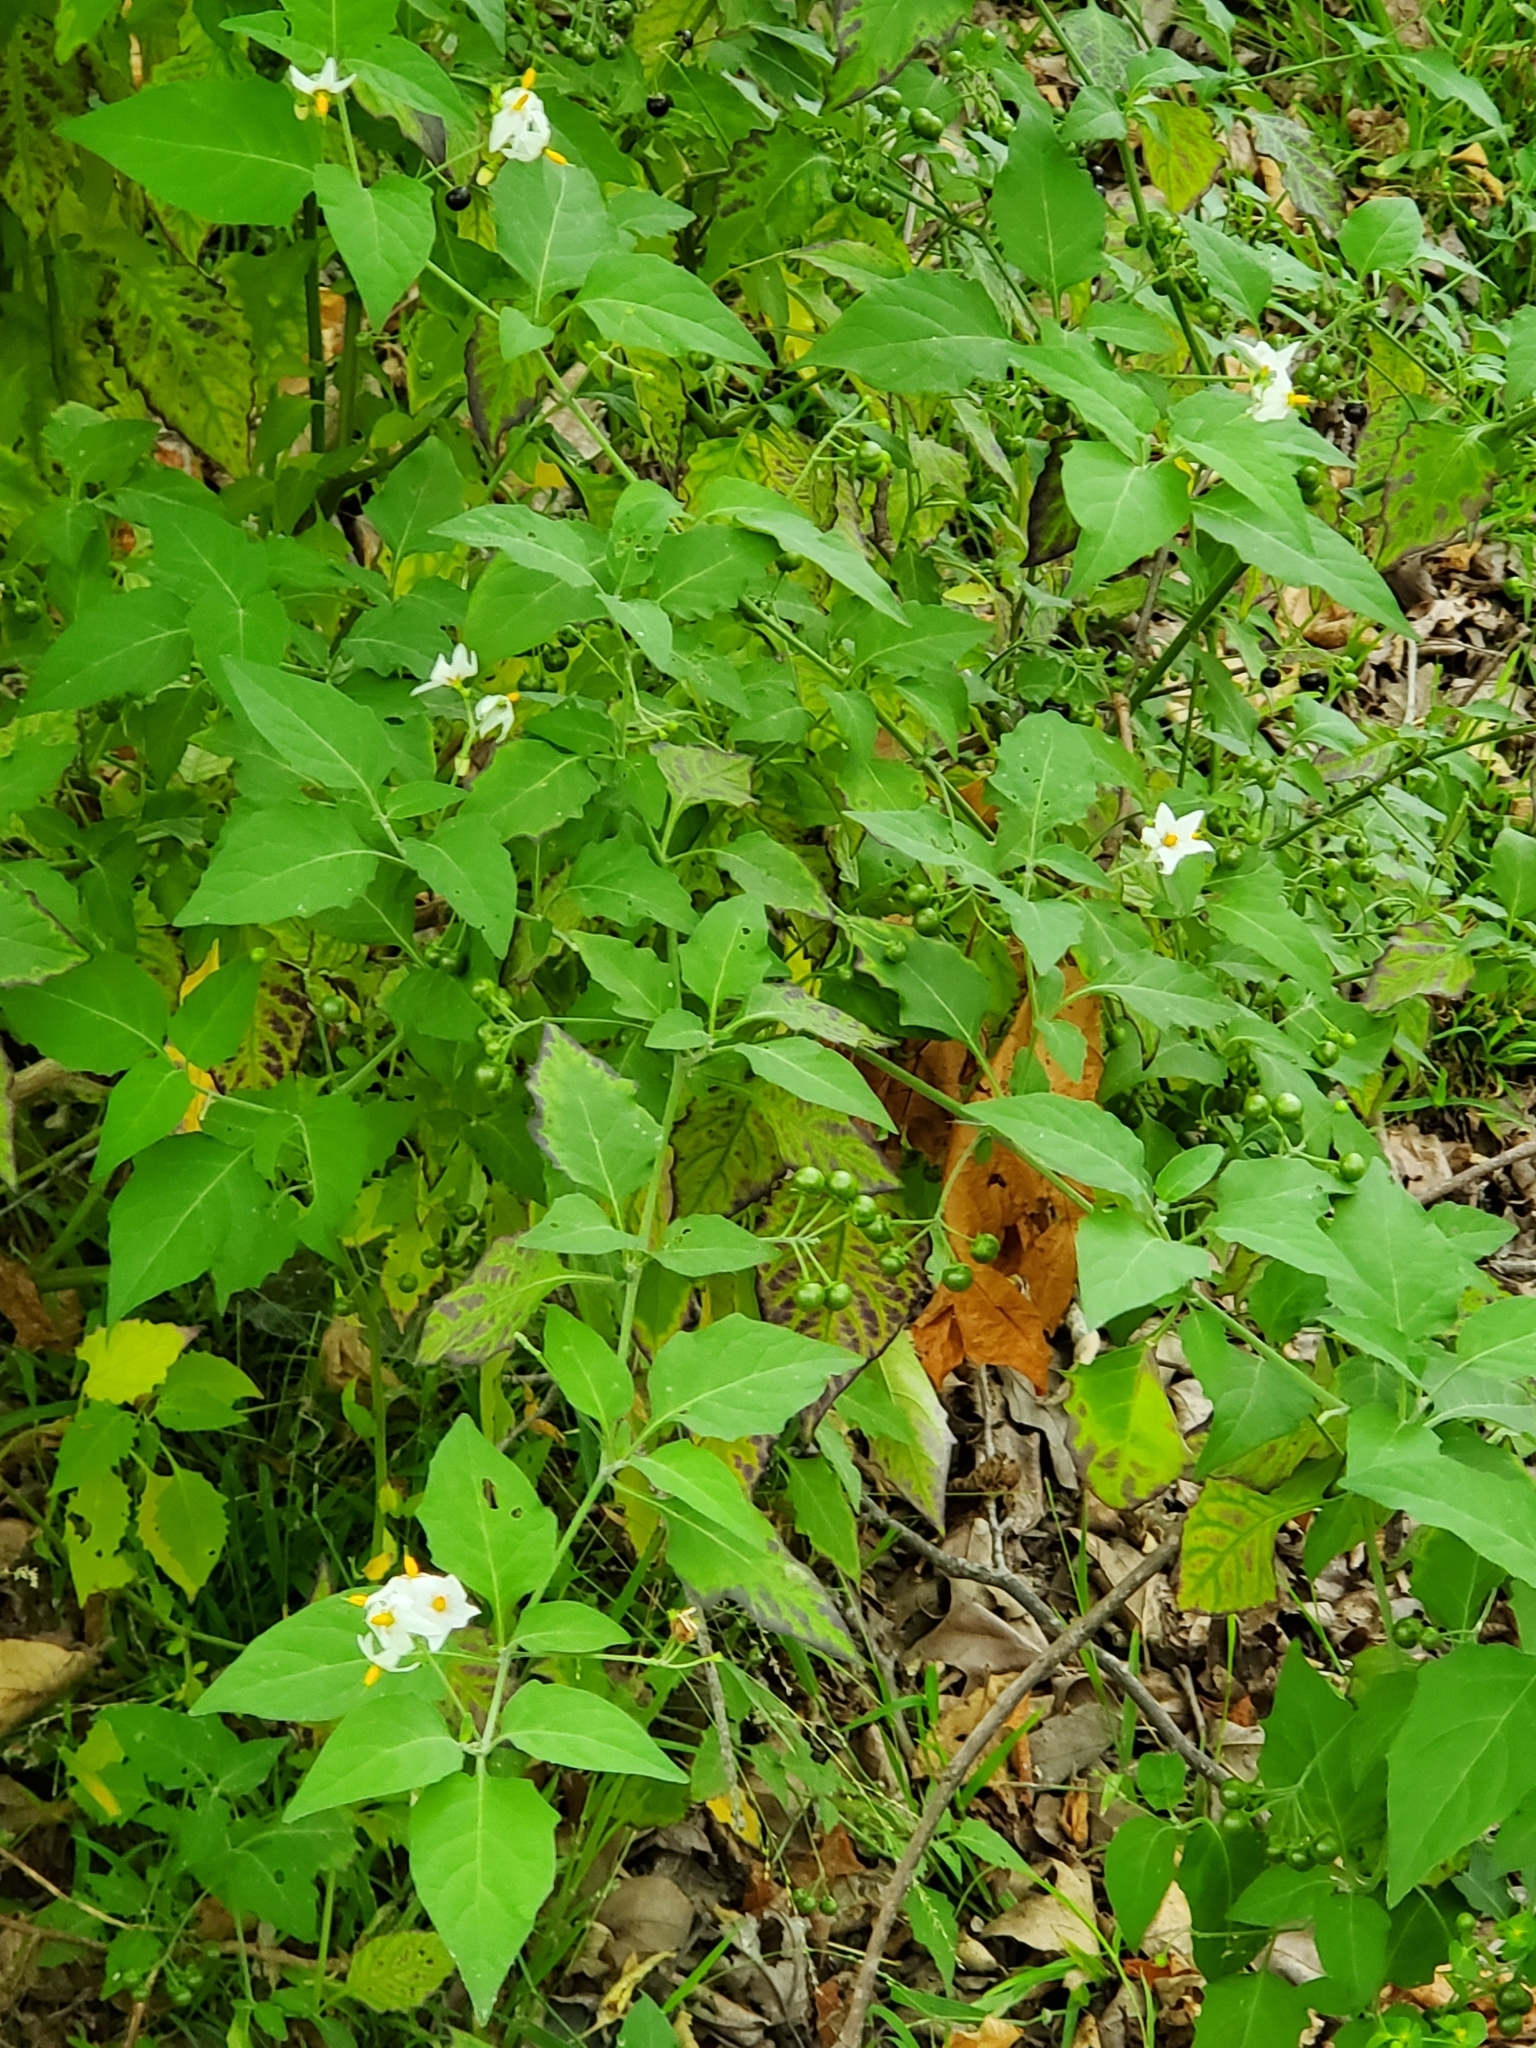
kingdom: Plantae
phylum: Tracheophyta
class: Magnoliopsida
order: Solanales
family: Solanaceae
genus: Solanum
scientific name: Solanum douglasii
